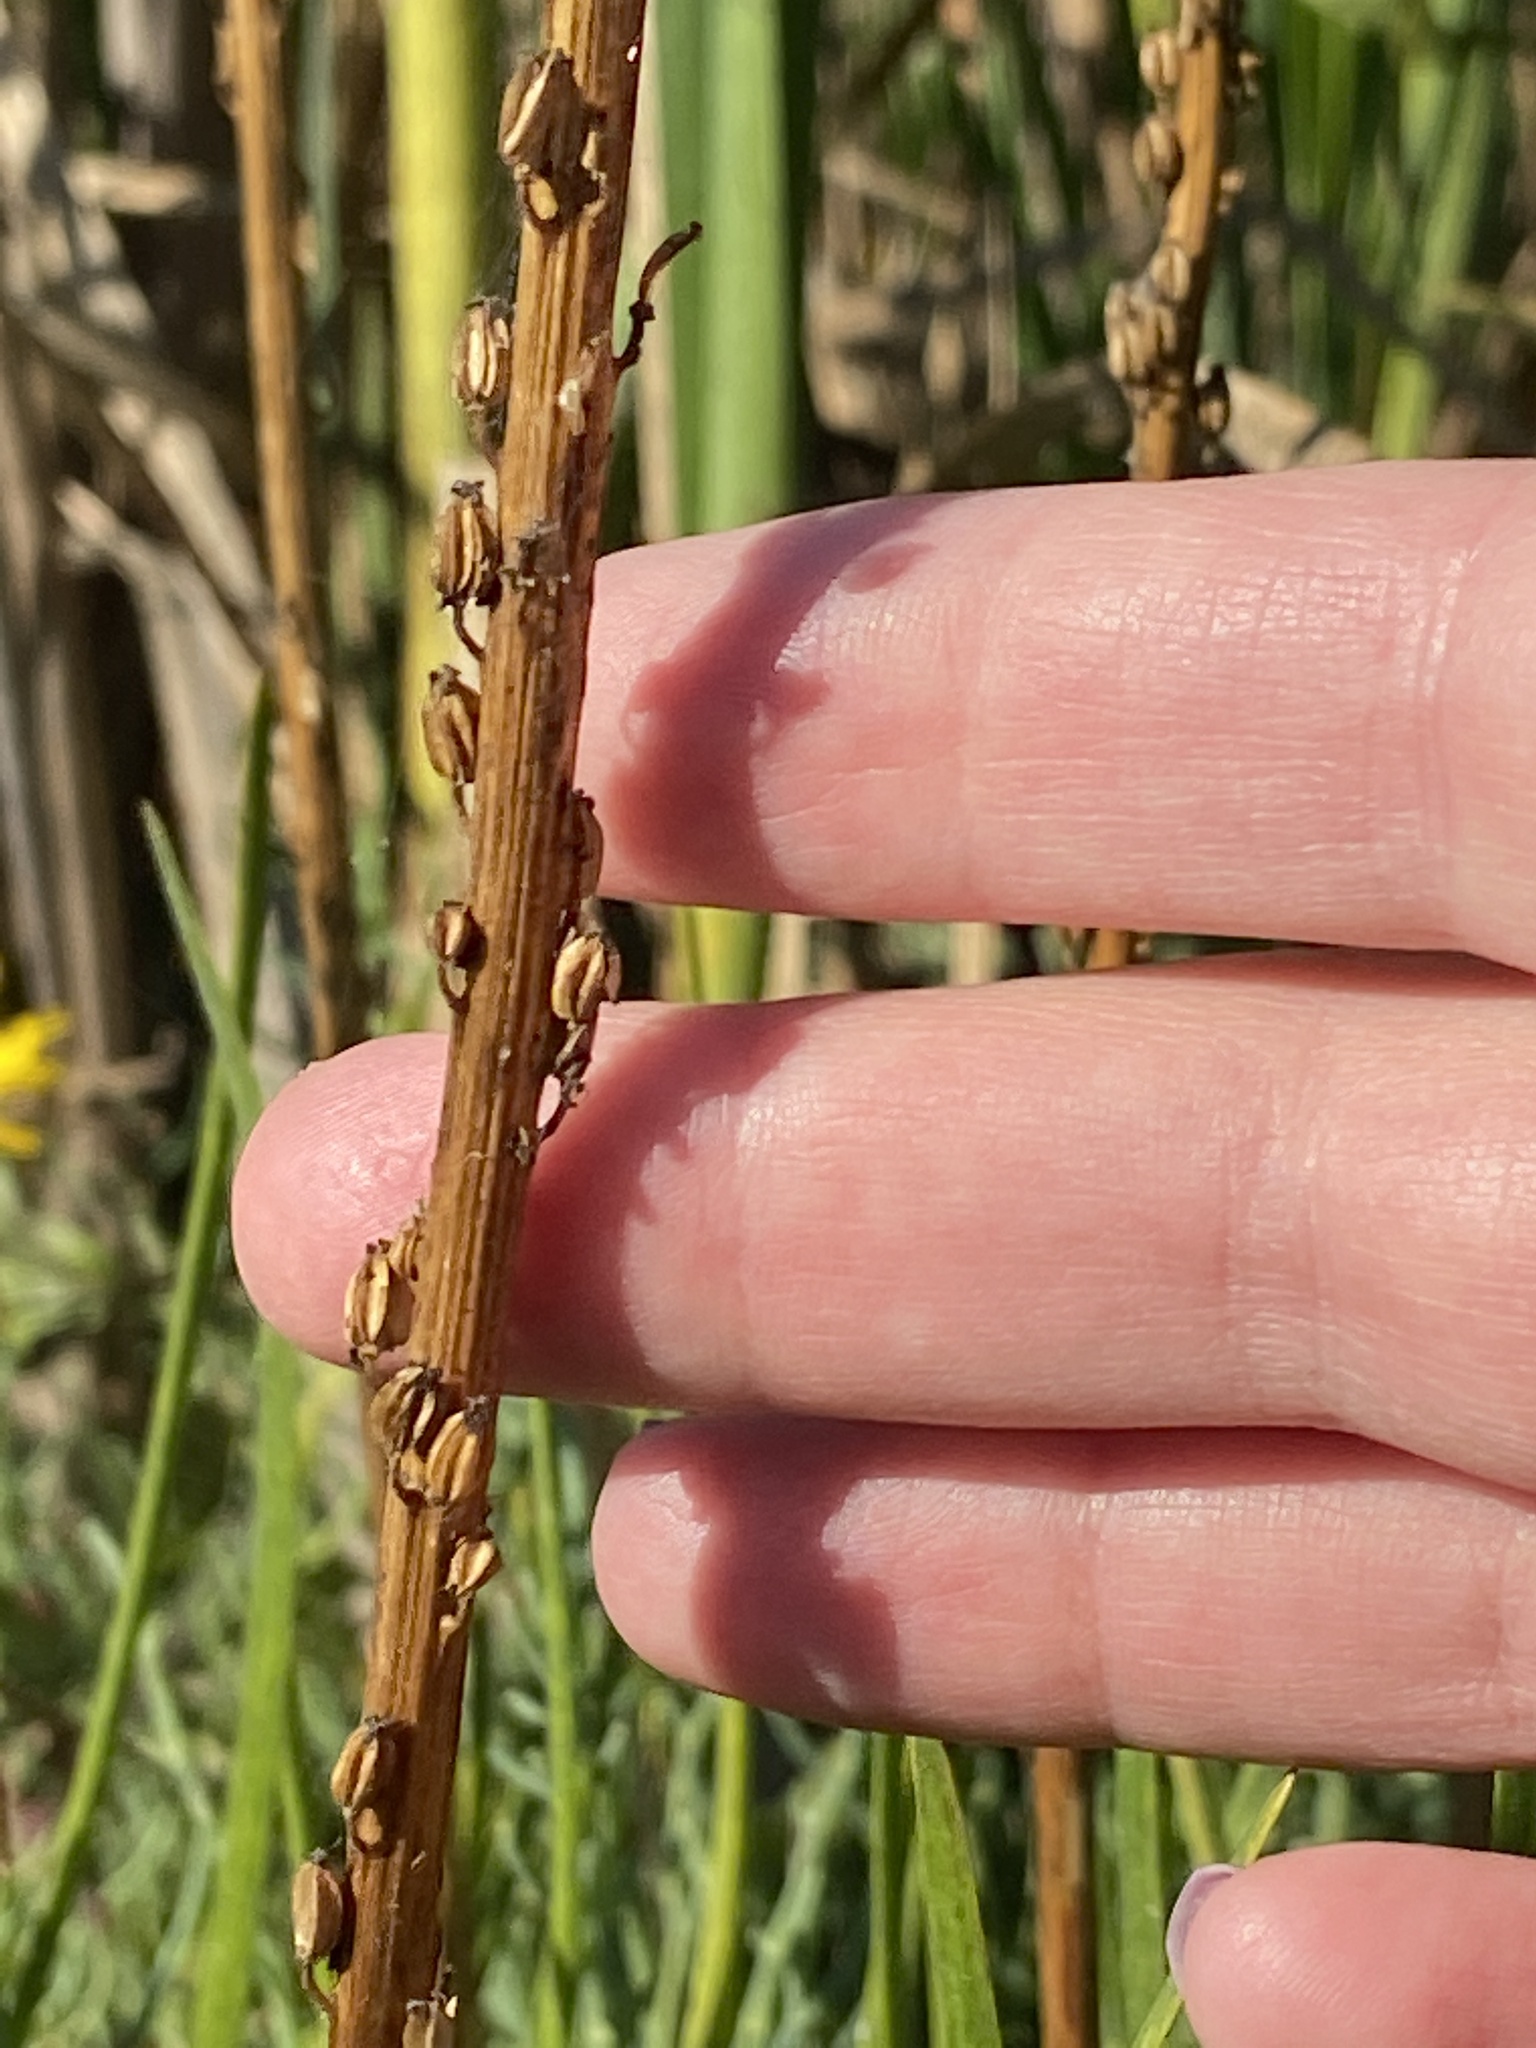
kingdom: Plantae
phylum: Tracheophyta
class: Liliopsida
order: Alismatales
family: Juncaginaceae
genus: Triglochin
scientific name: Triglochin maritima
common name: Sea arrowgrass
